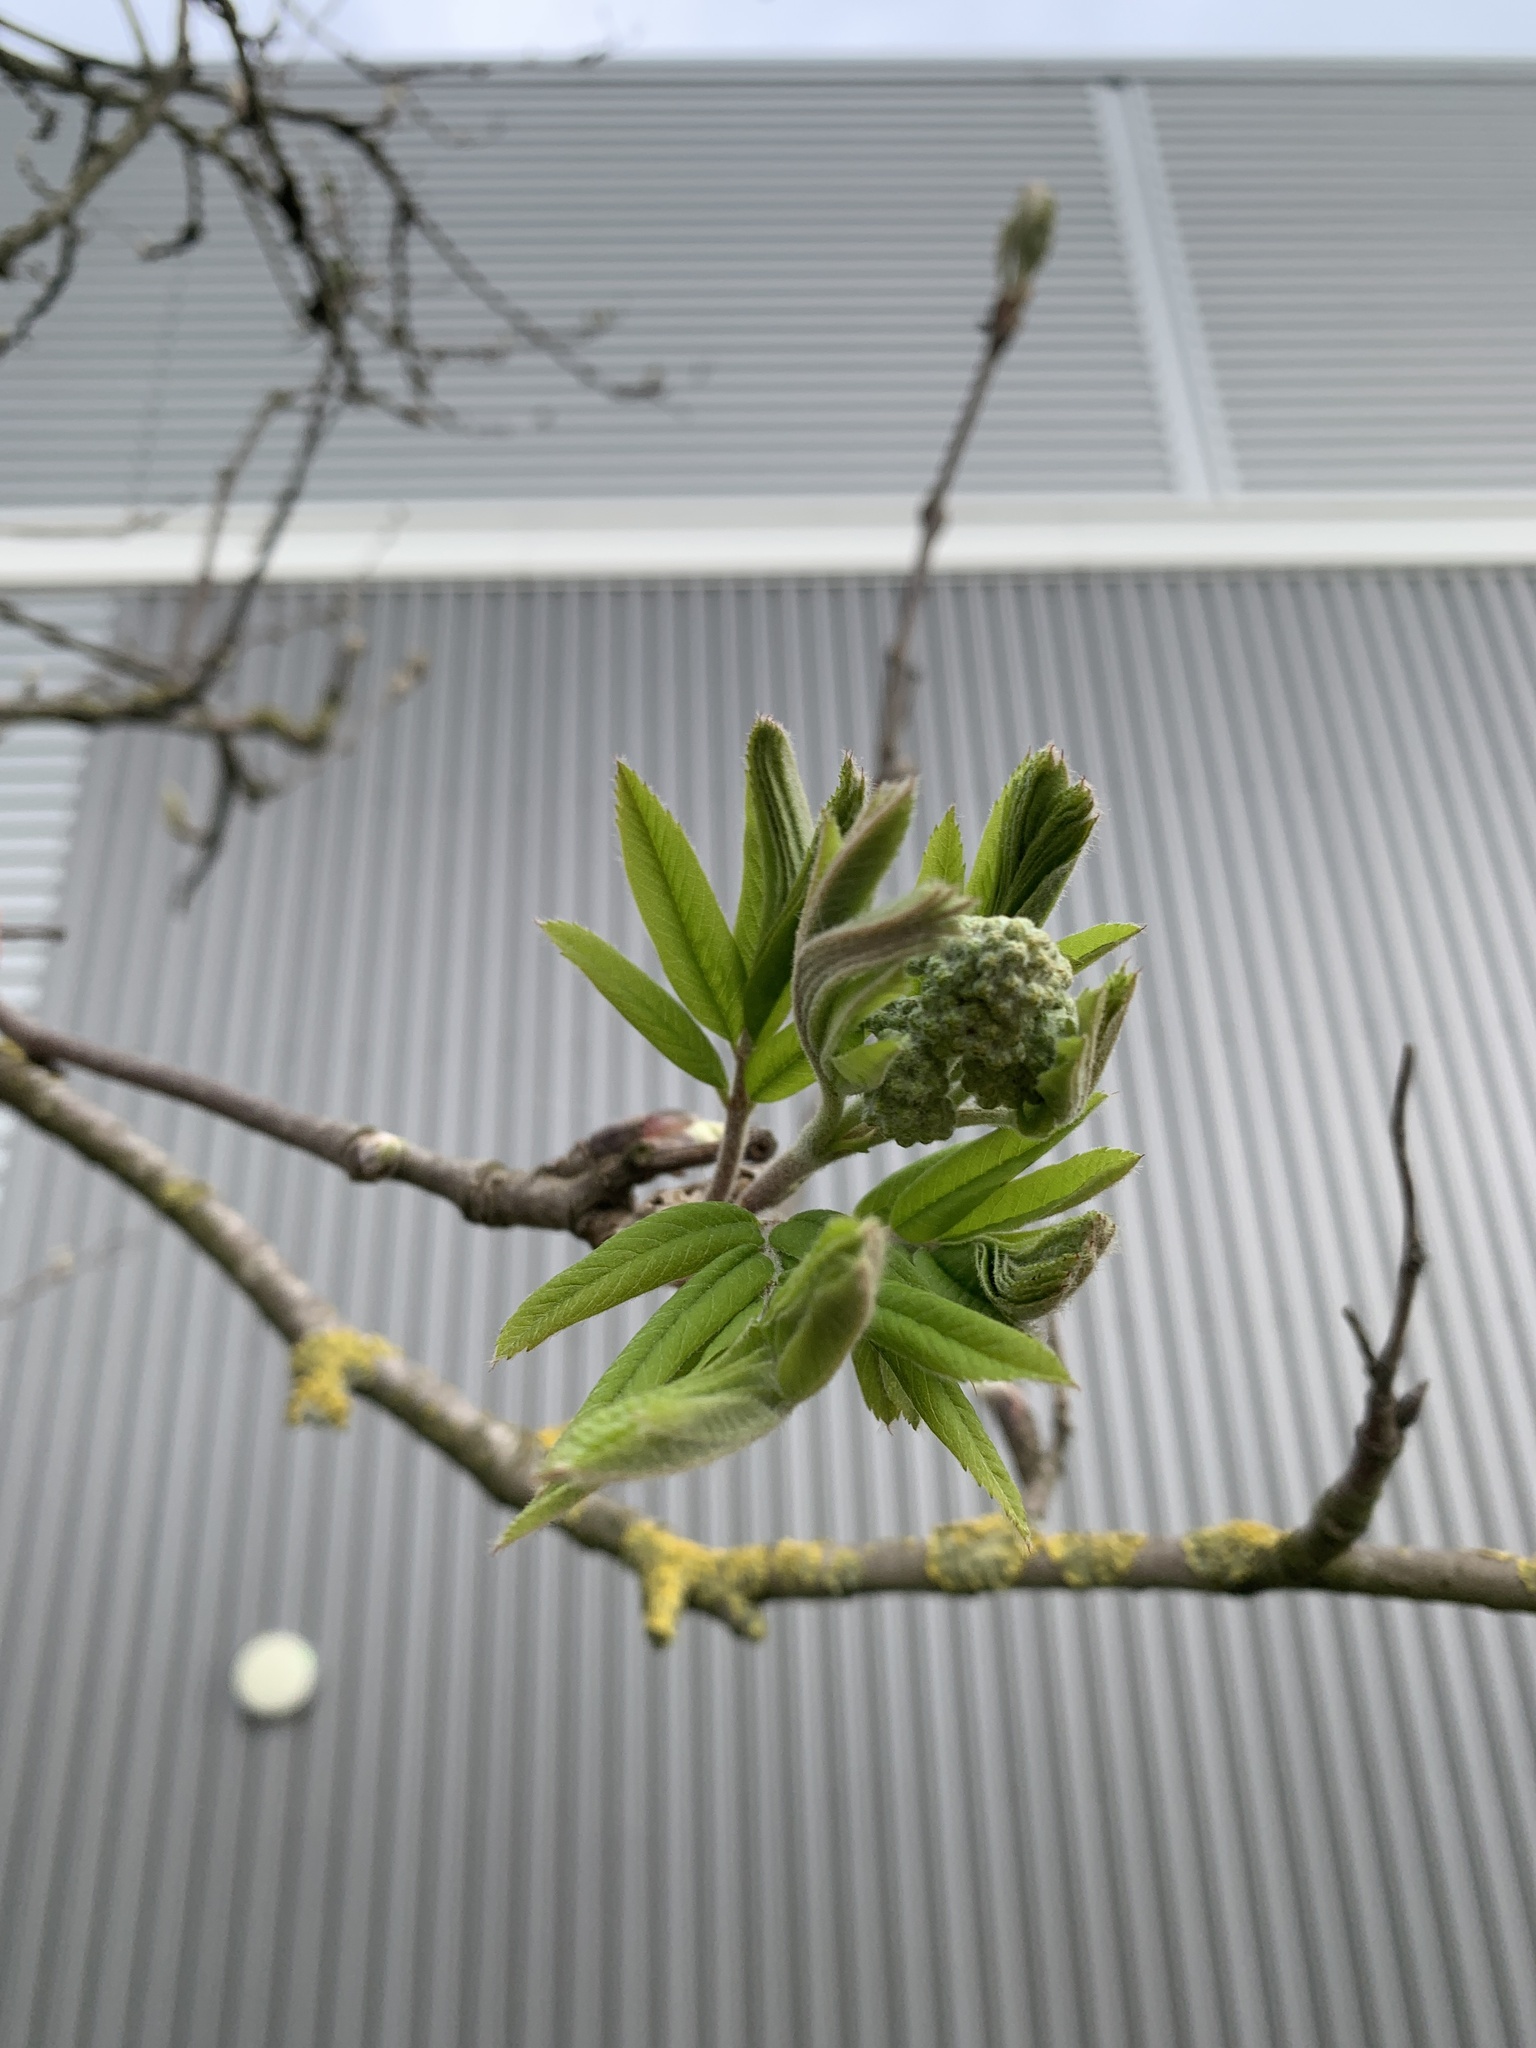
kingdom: Plantae
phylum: Tracheophyta
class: Magnoliopsida
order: Rosales
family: Rosaceae
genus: Sorbus
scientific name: Sorbus aucuparia
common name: Rowan
